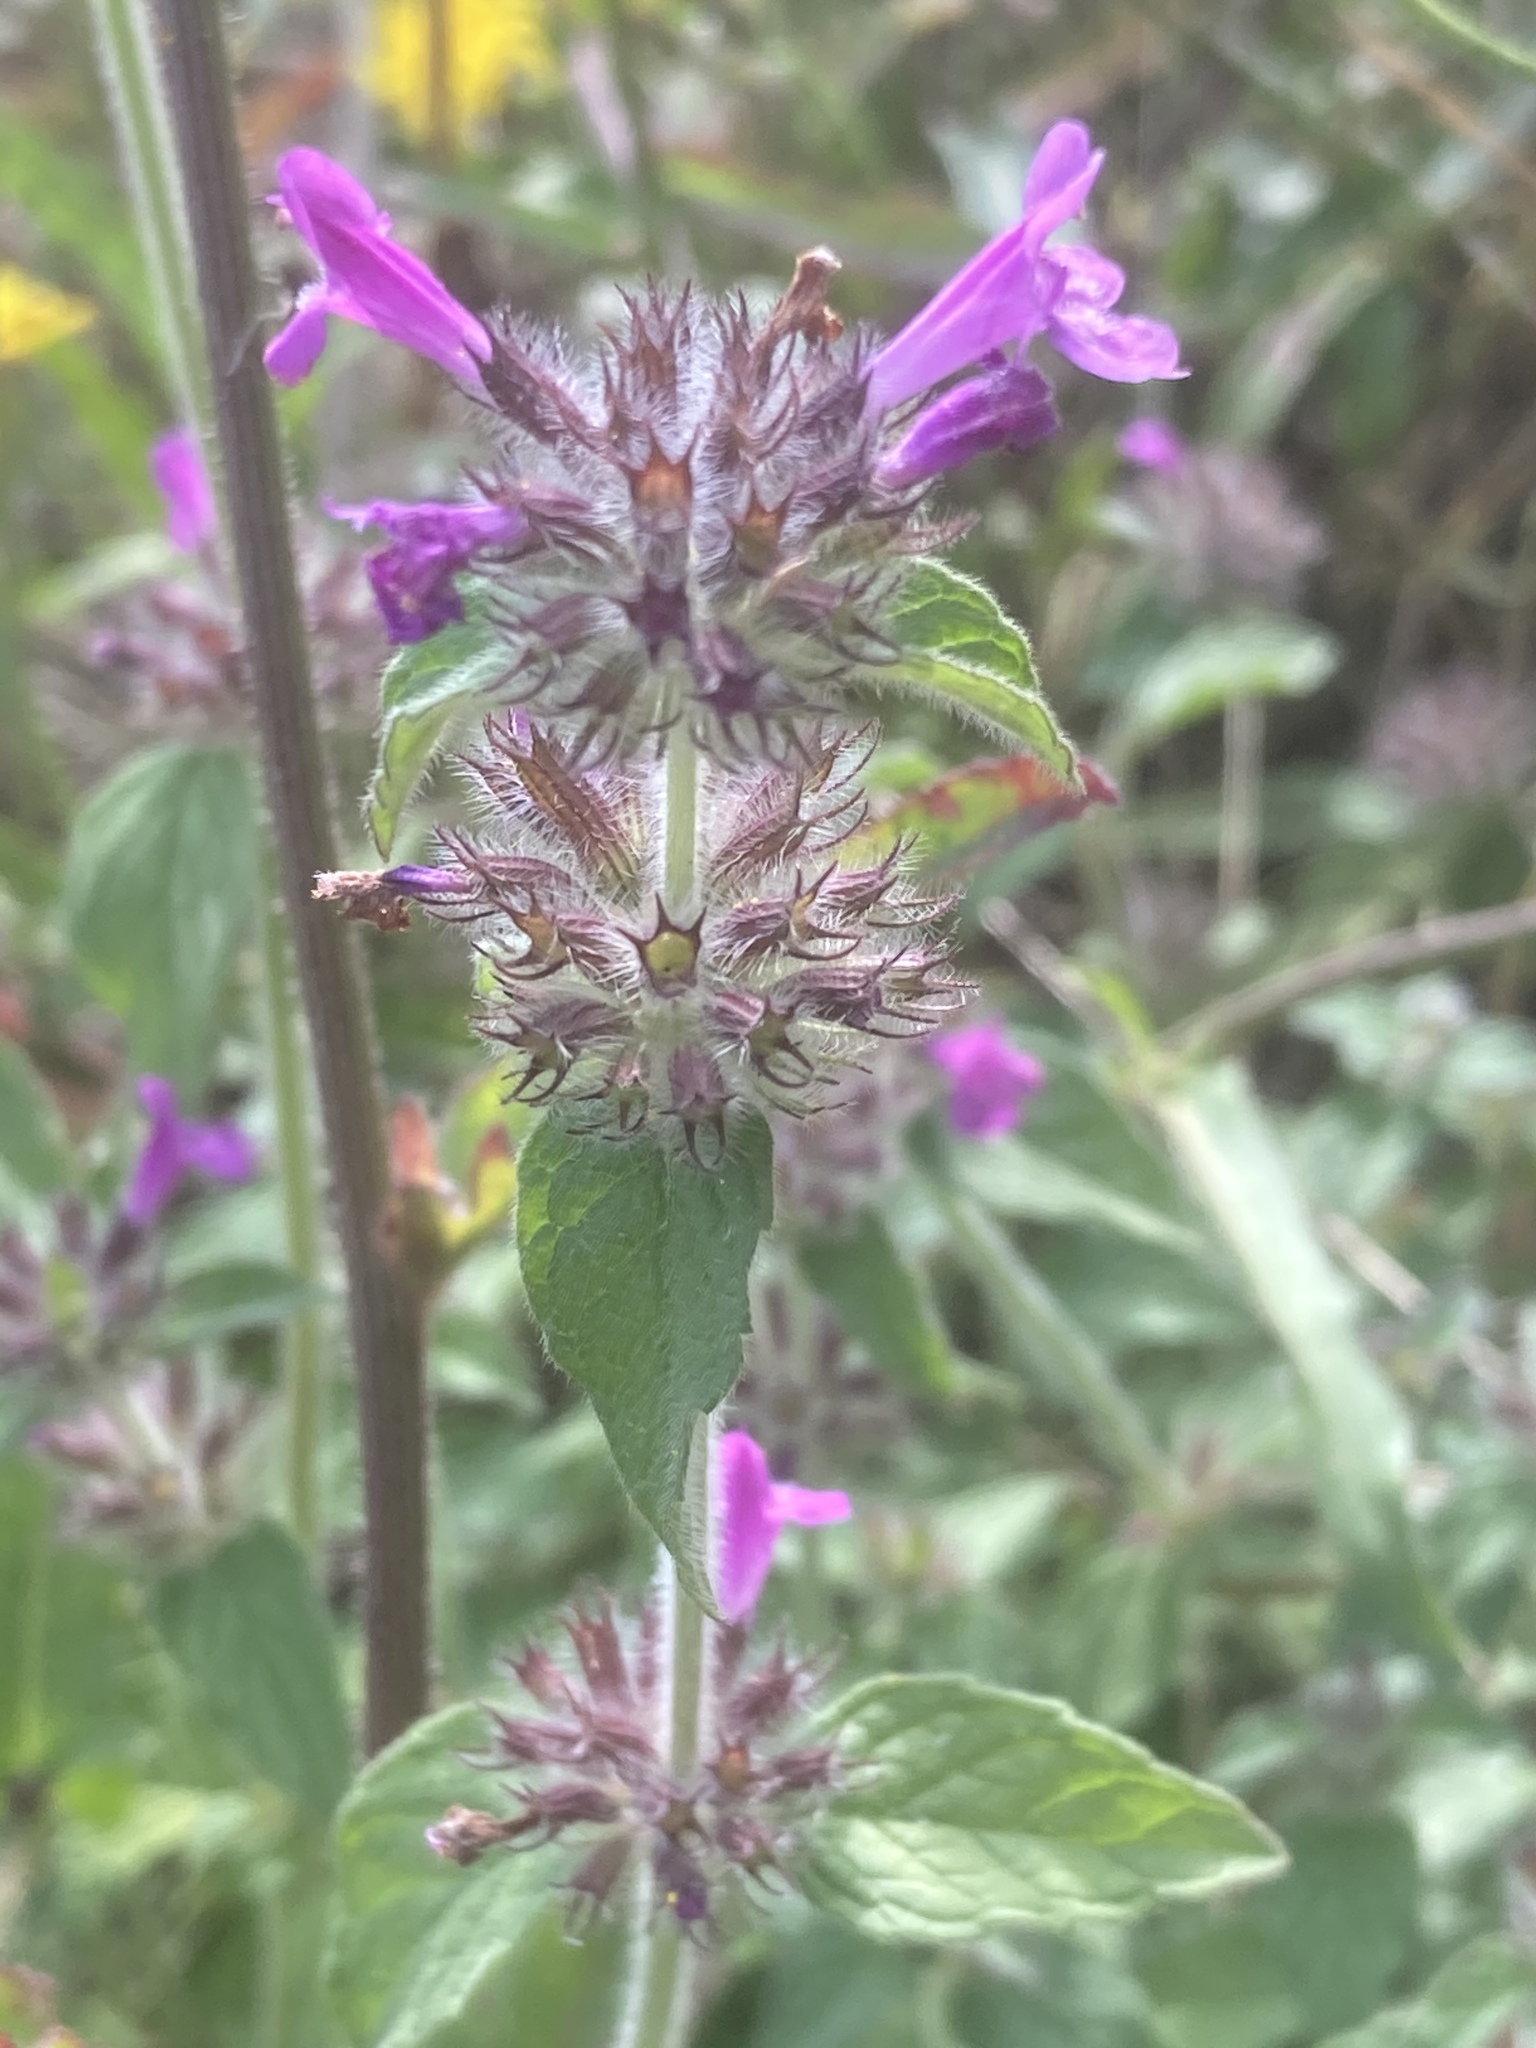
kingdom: Plantae
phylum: Tracheophyta
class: Magnoliopsida
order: Lamiales
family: Lamiaceae
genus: Clinopodium
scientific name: Clinopodium vulgare
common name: Wild basil
